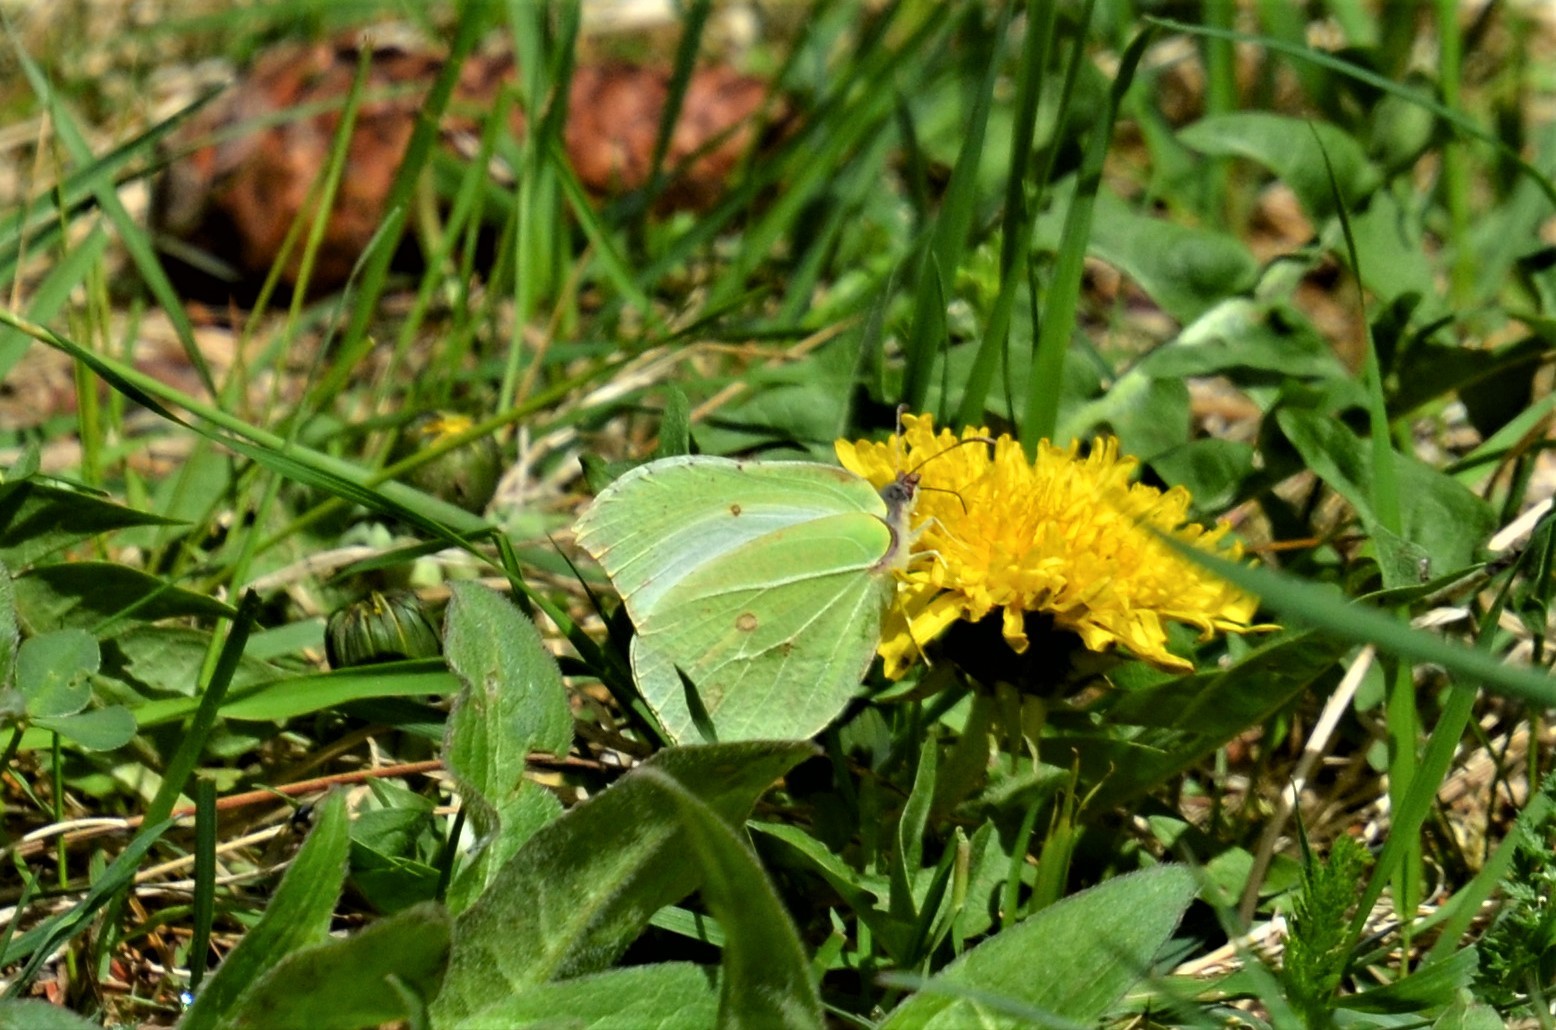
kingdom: Animalia
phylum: Arthropoda
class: Insecta
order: Lepidoptera
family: Pieridae
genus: Gonepteryx
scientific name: Gonepteryx rhamni
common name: Brimstone
